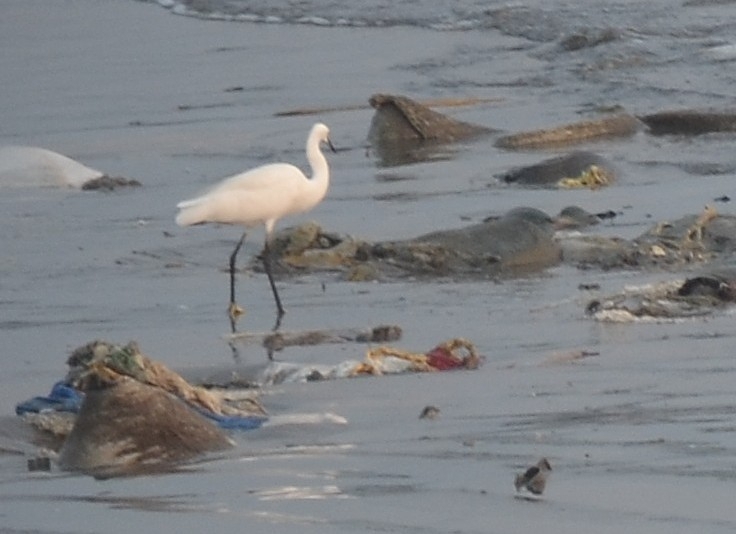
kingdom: Animalia
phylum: Chordata
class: Aves
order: Pelecaniformes
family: Ardeidae
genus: Egretta
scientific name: Egretta garzetta
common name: Little egret
